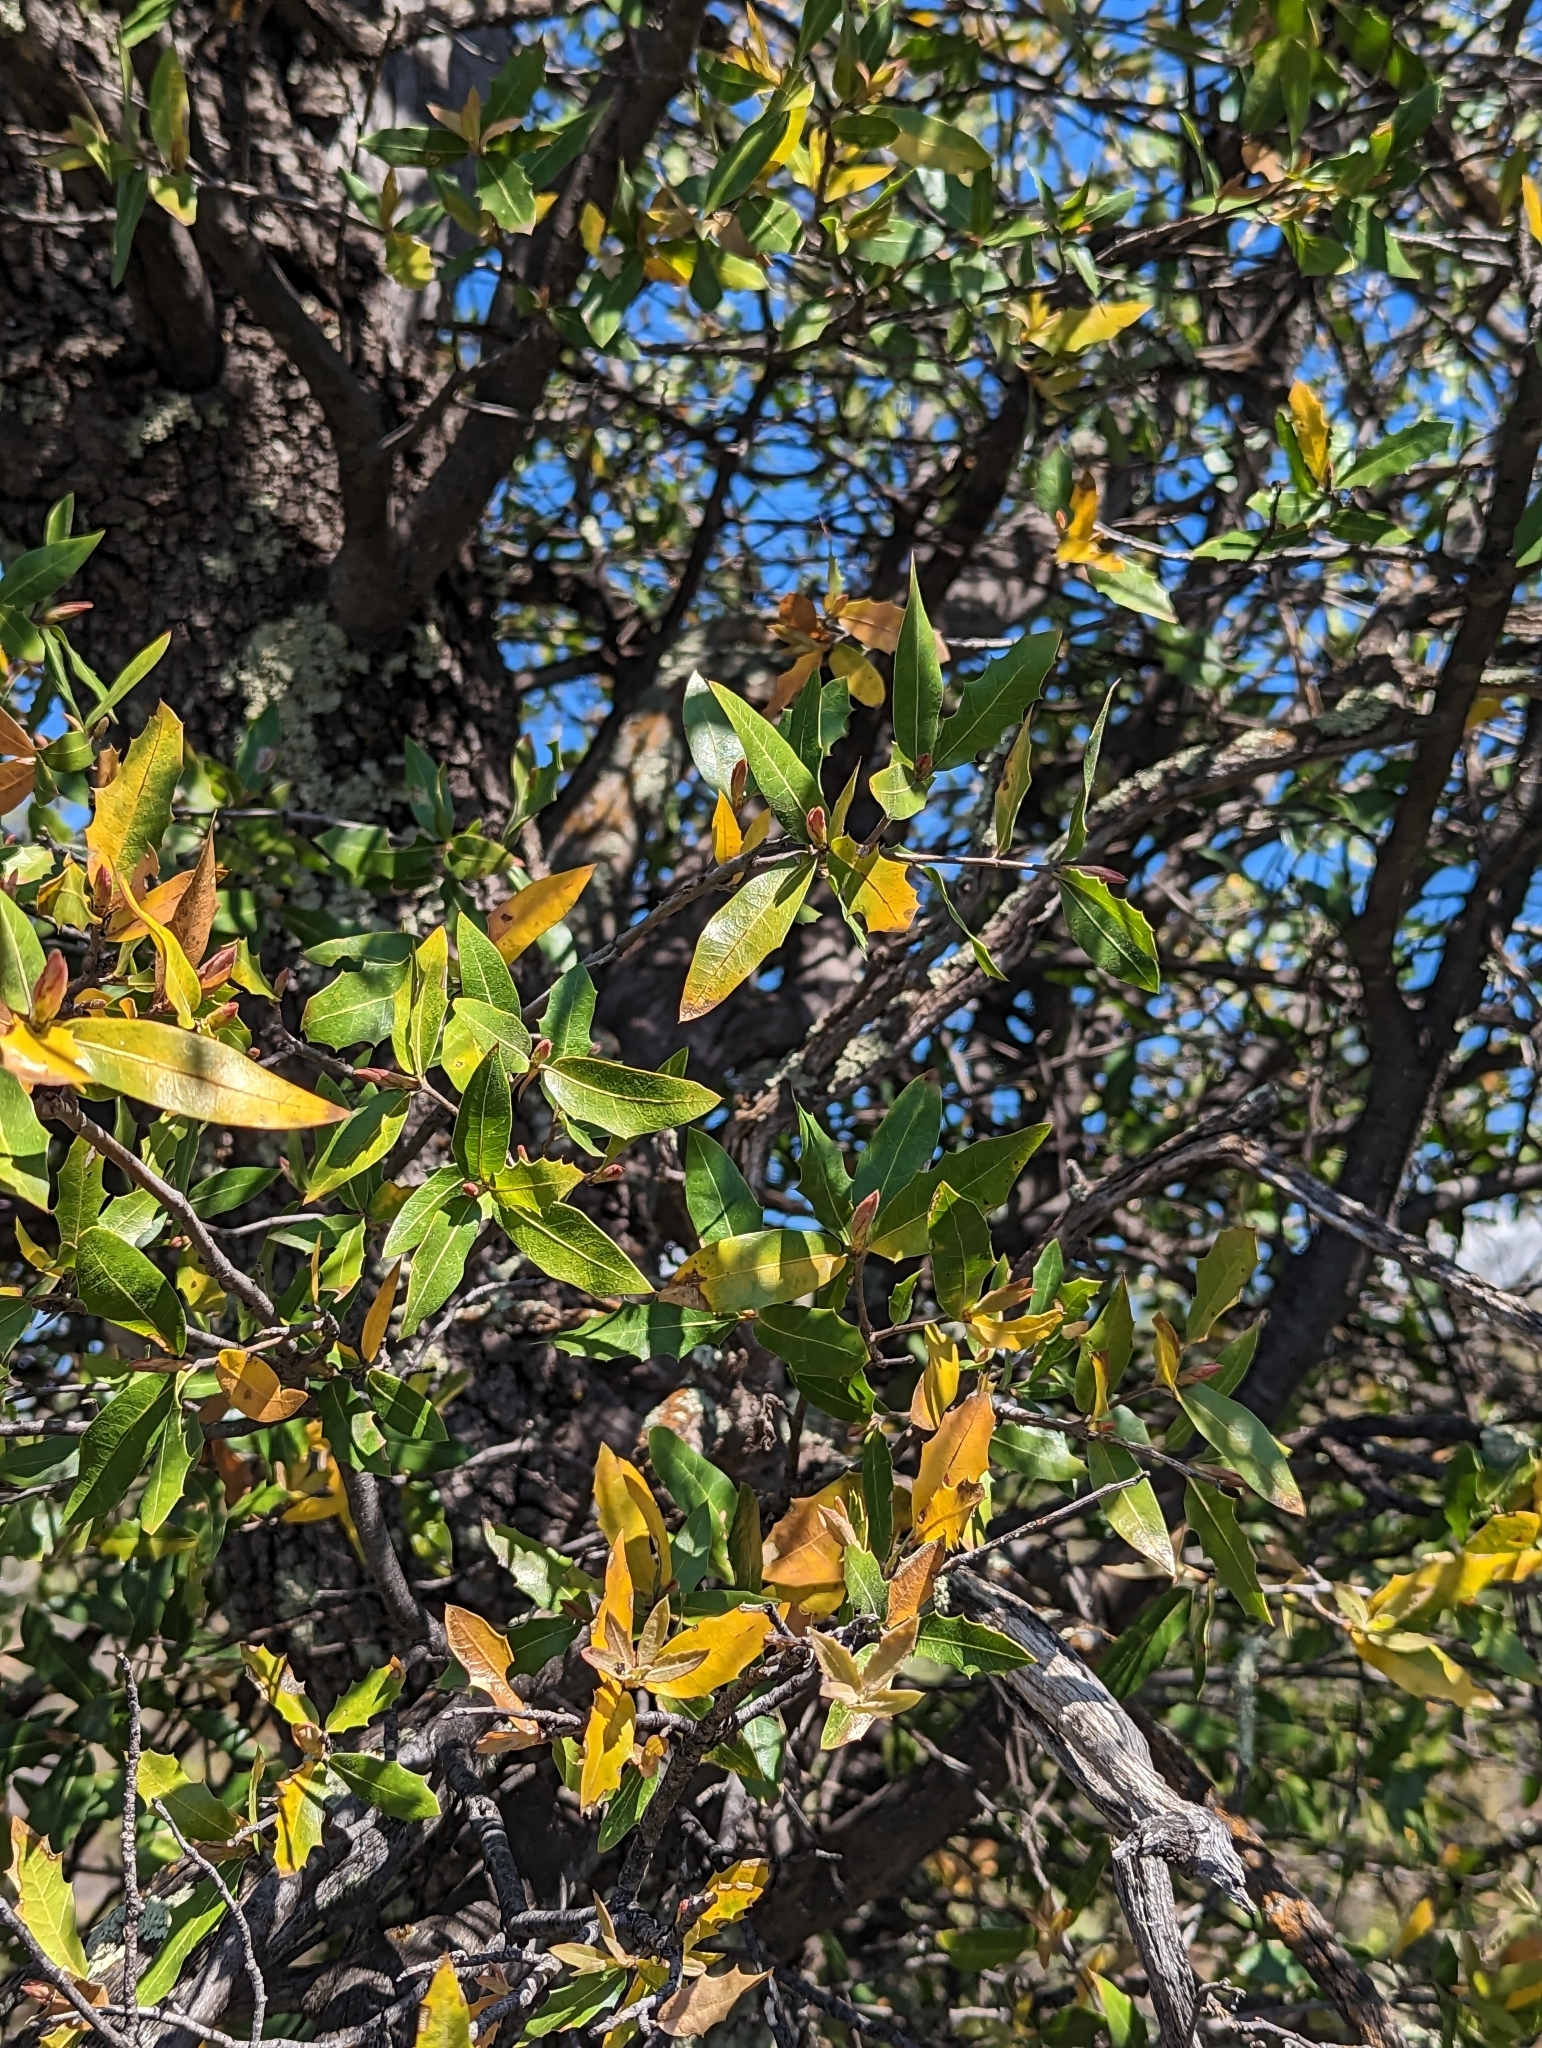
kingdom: Plantae
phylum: Tracheophyta
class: Magnoliopsida
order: Fagales
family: Fagaceae
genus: Quercus
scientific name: Quercus emoryi
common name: Emory oak
